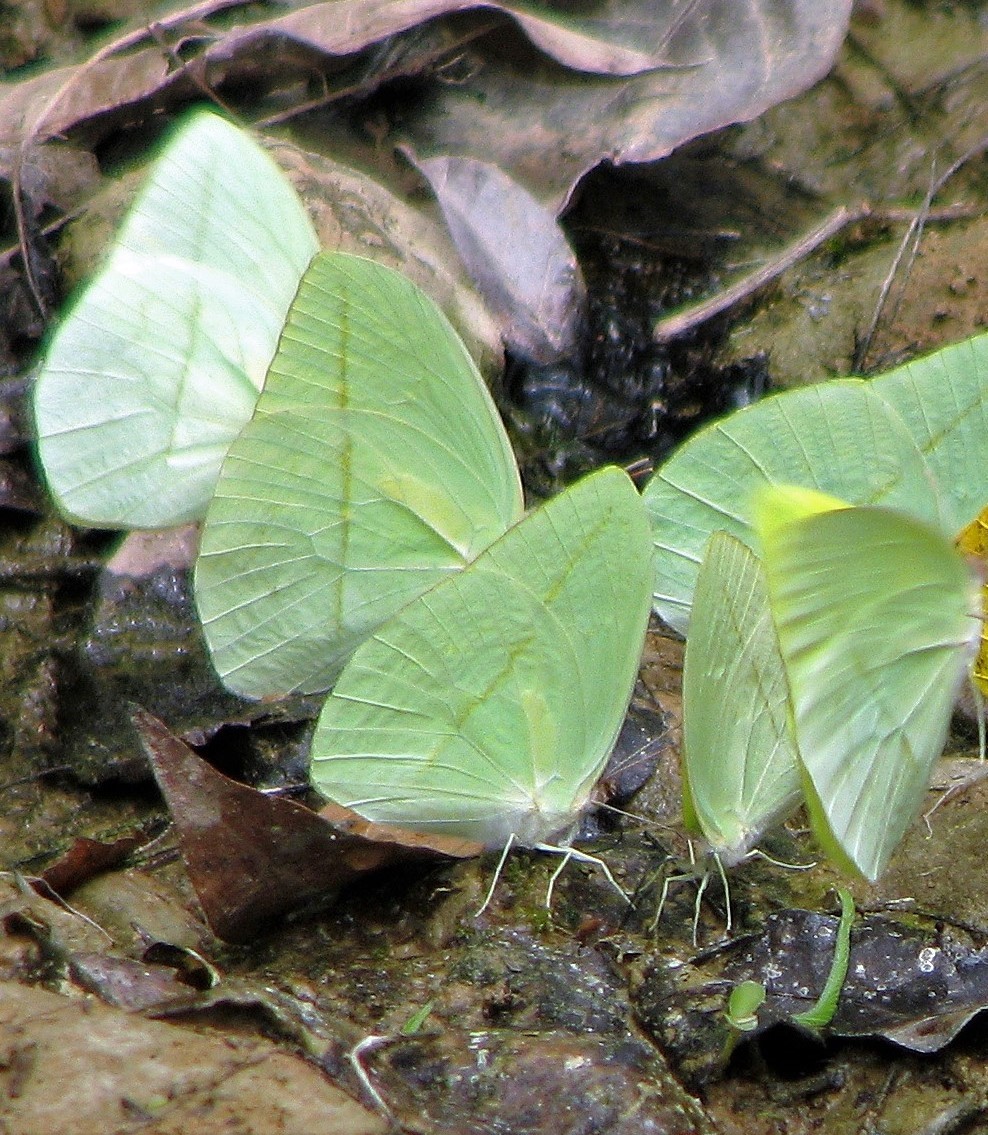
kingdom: Animalia
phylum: Arthropoda
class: Insecta
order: Lepidoptera
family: Pieridae
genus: Rhabdodryas
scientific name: Rhabdodryas trite
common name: Straight-lined sulphur
